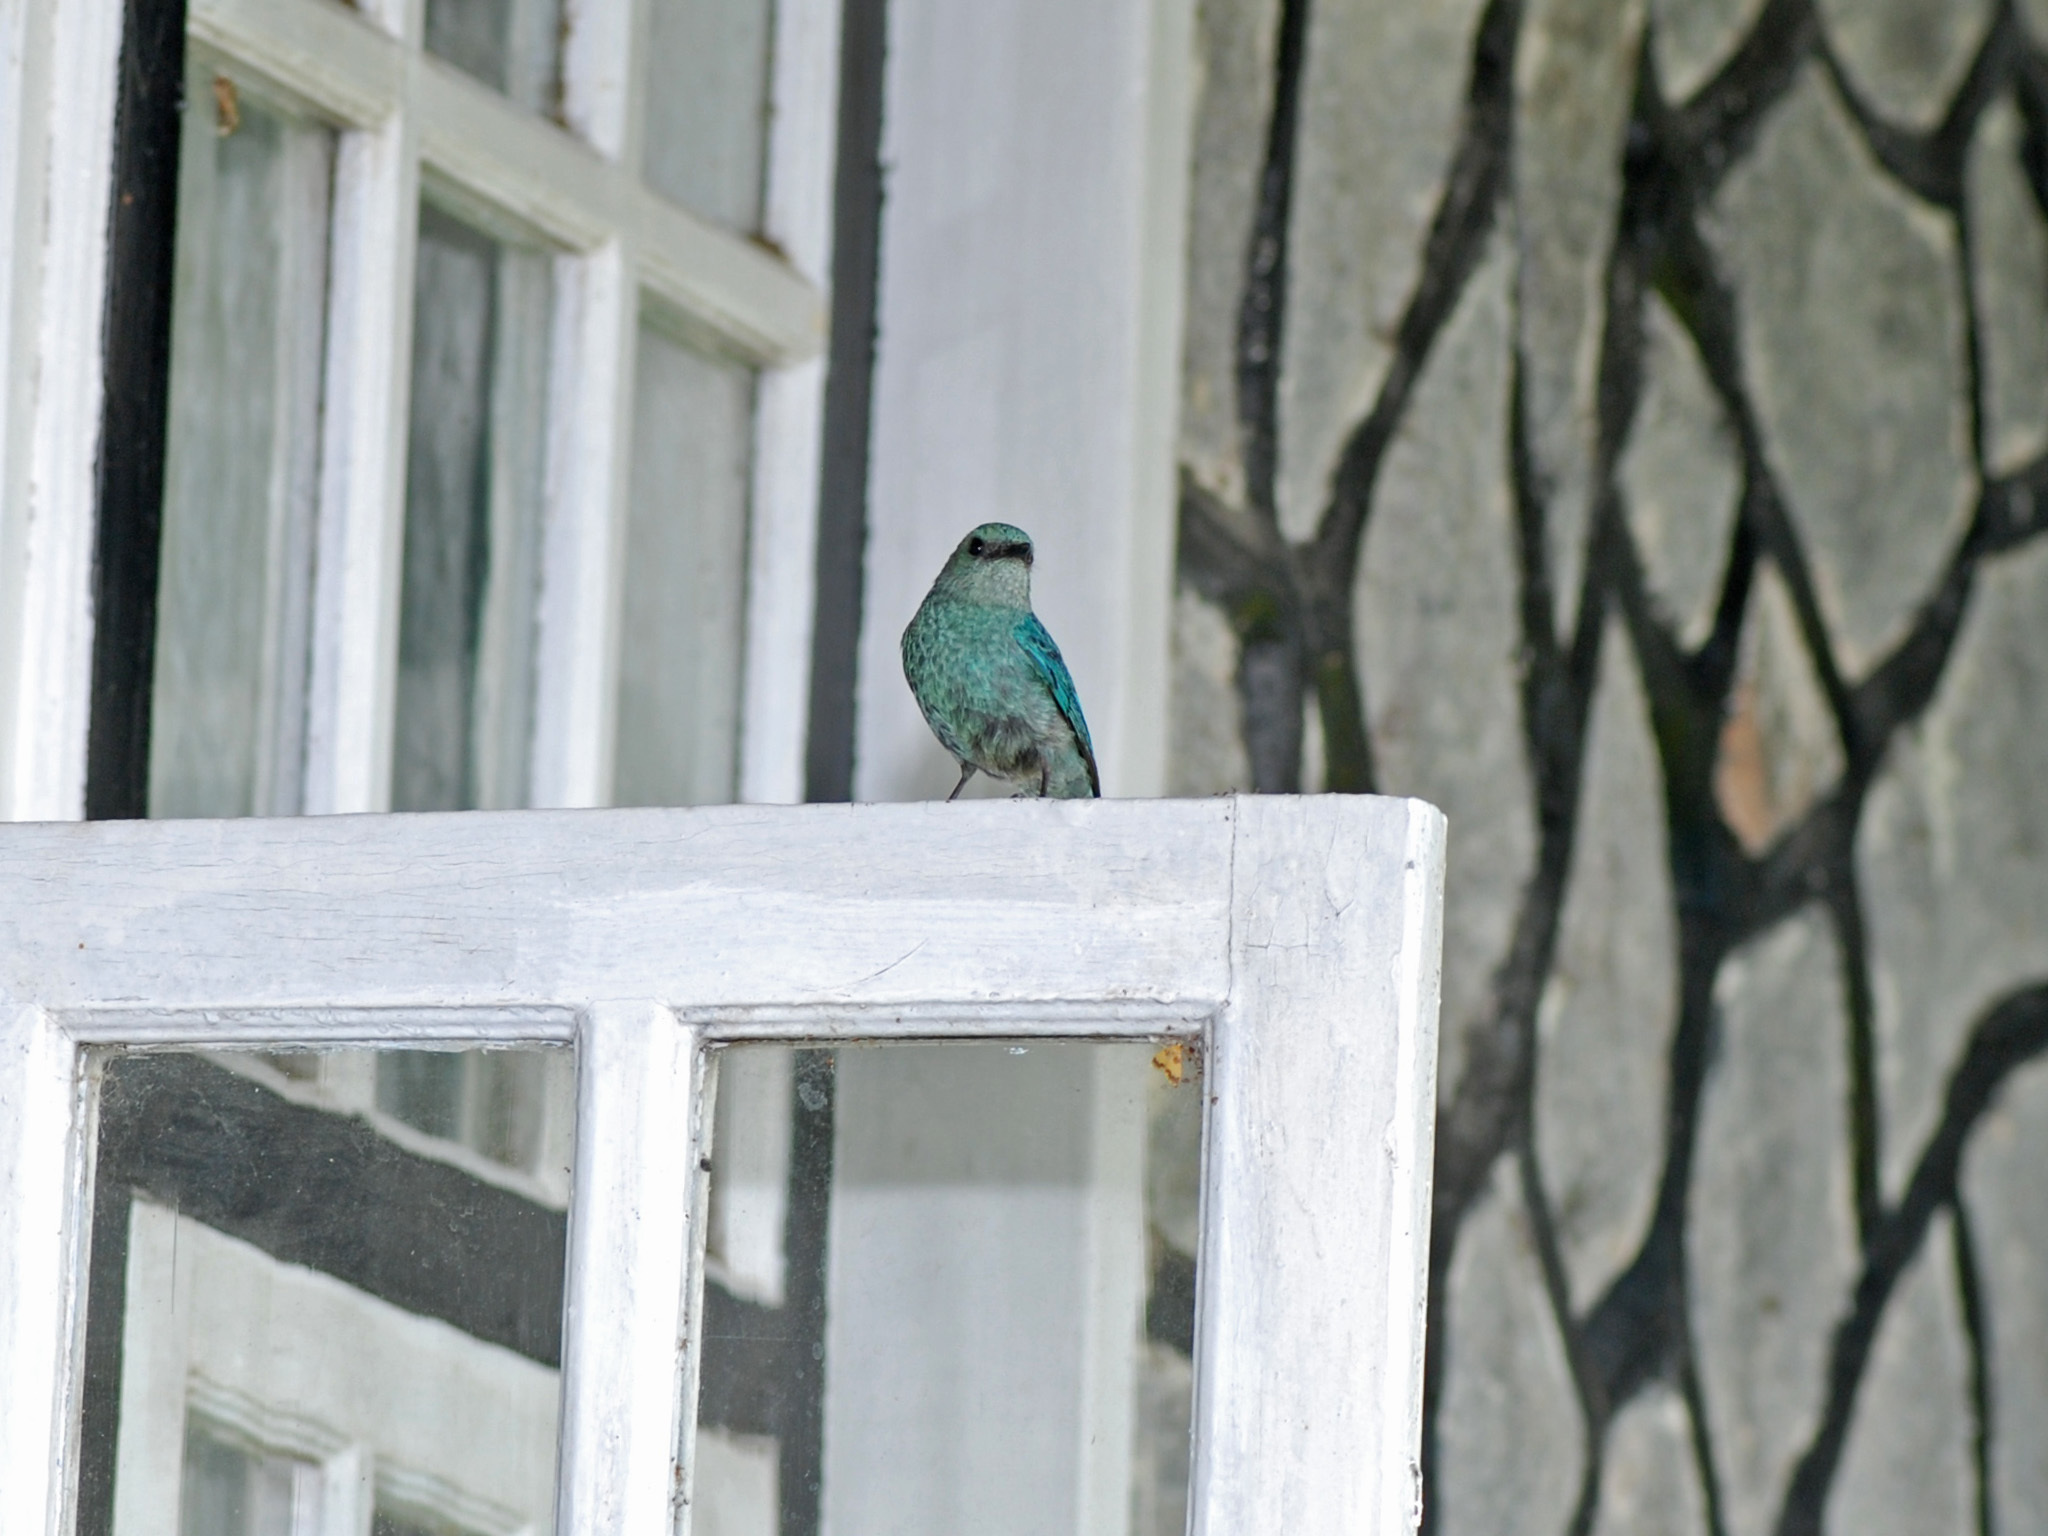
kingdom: Animalia
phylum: Chordata
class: Aves
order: Passeriformes
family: Muscicapidae
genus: Eumyias
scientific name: Eumyias thalassinus
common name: Verditer flycatcher
